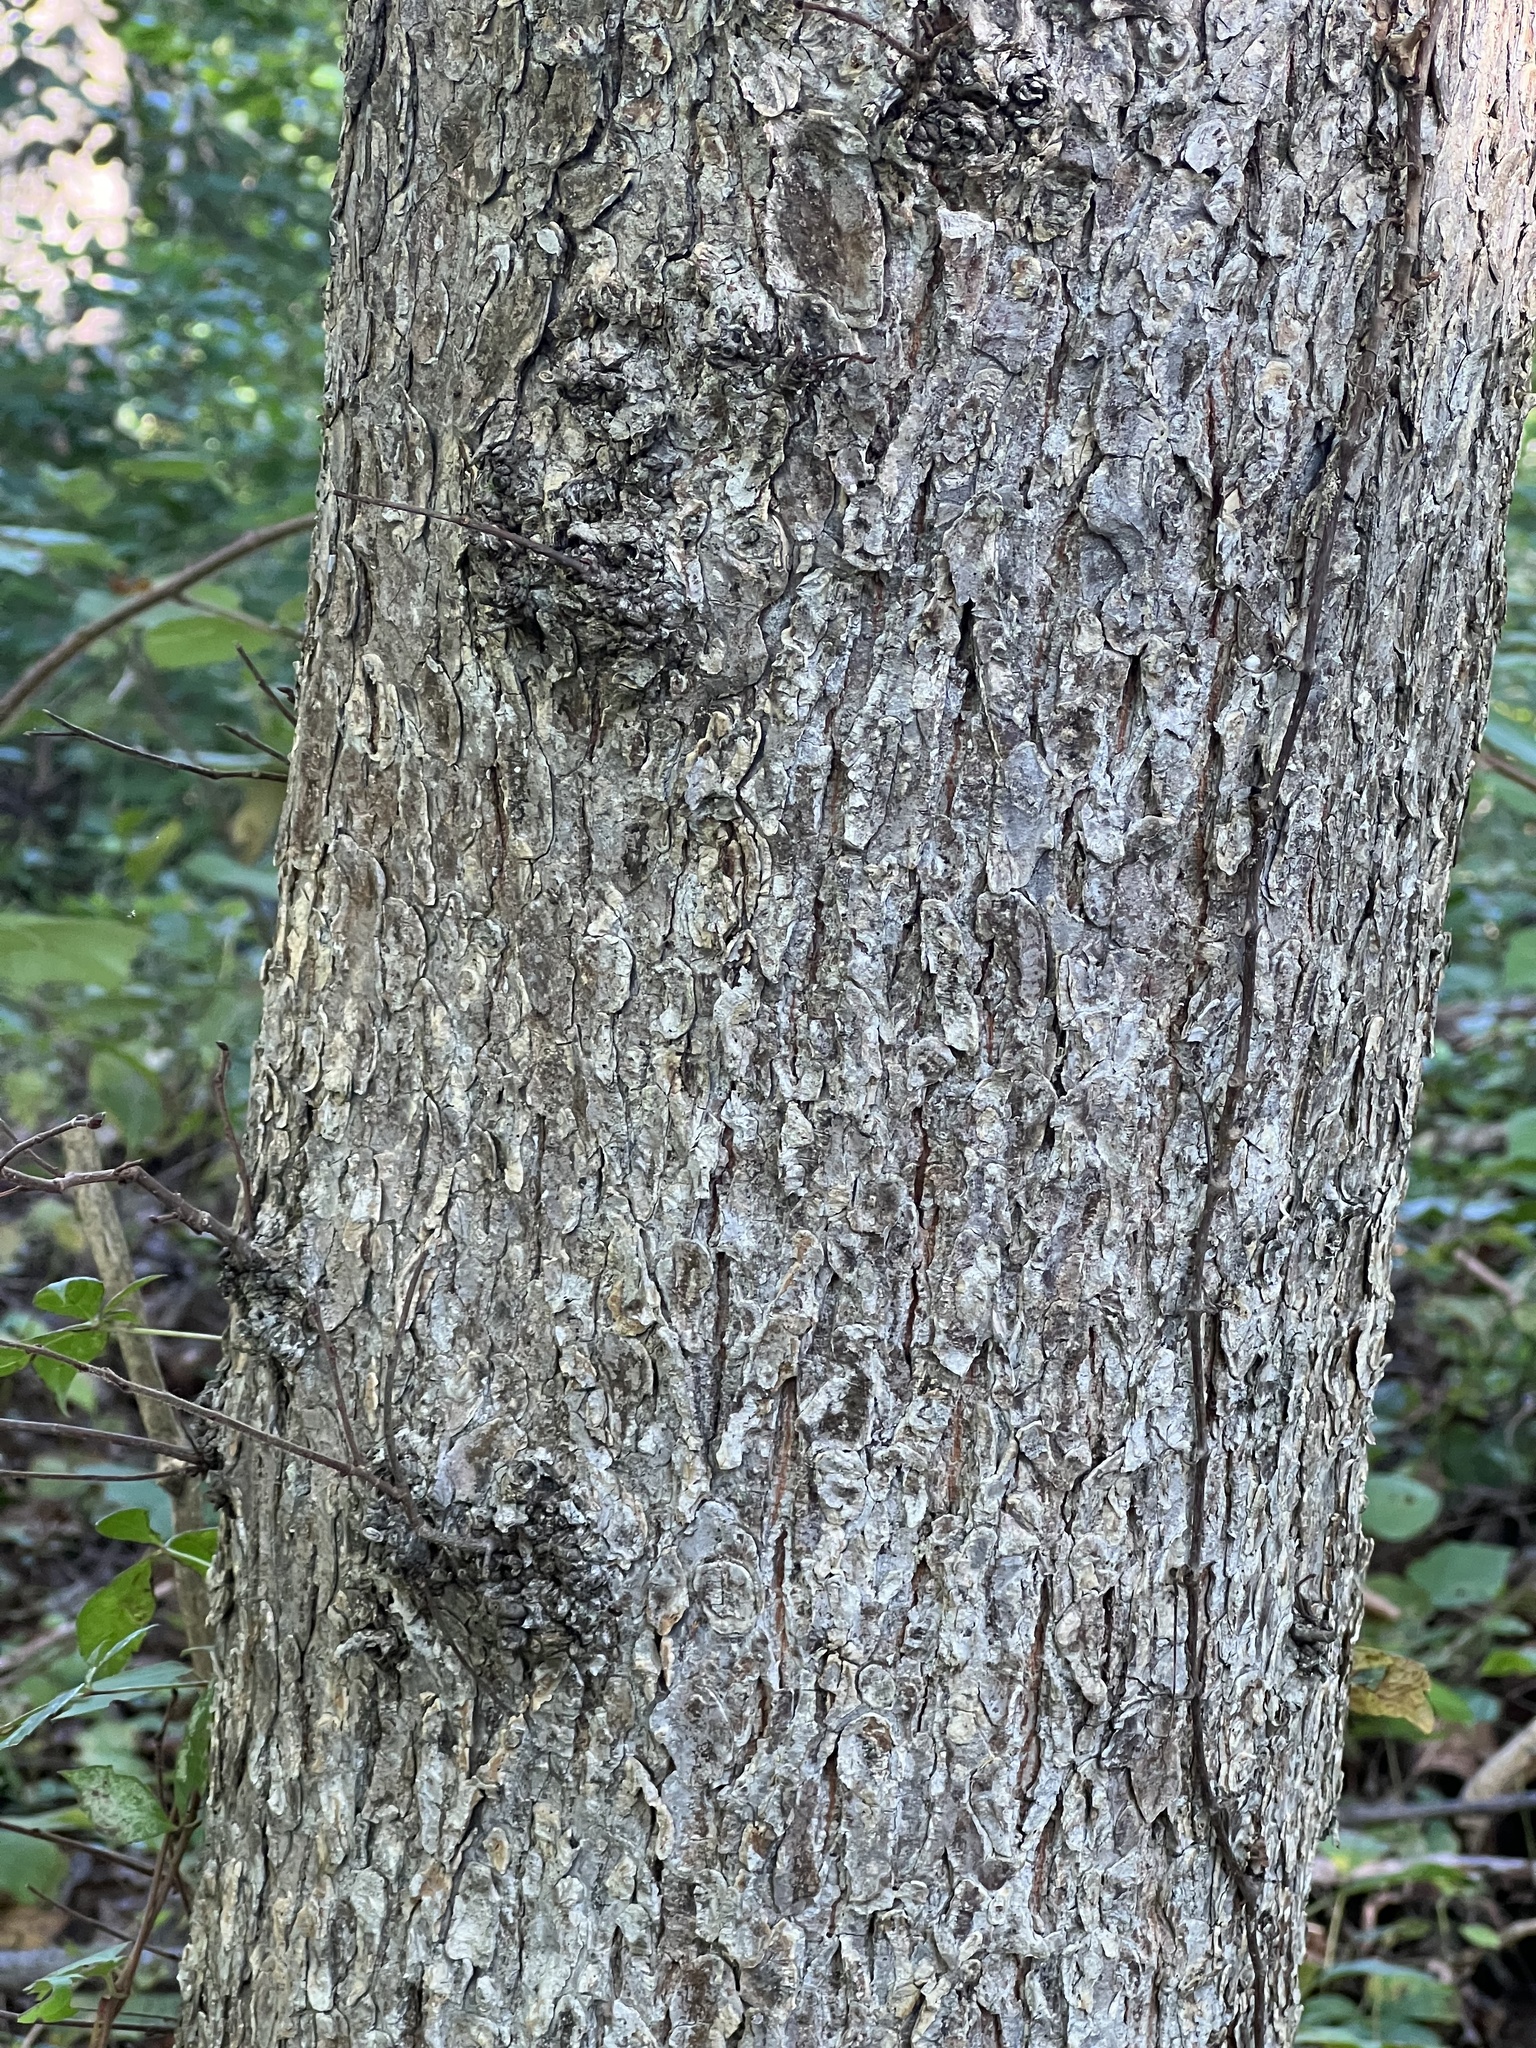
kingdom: Plantae
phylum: Tracheophyta
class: Magnoliopsida
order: Rosales
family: Ulmaceae
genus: Ulmus
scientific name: Ulmus americana
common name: American elm
